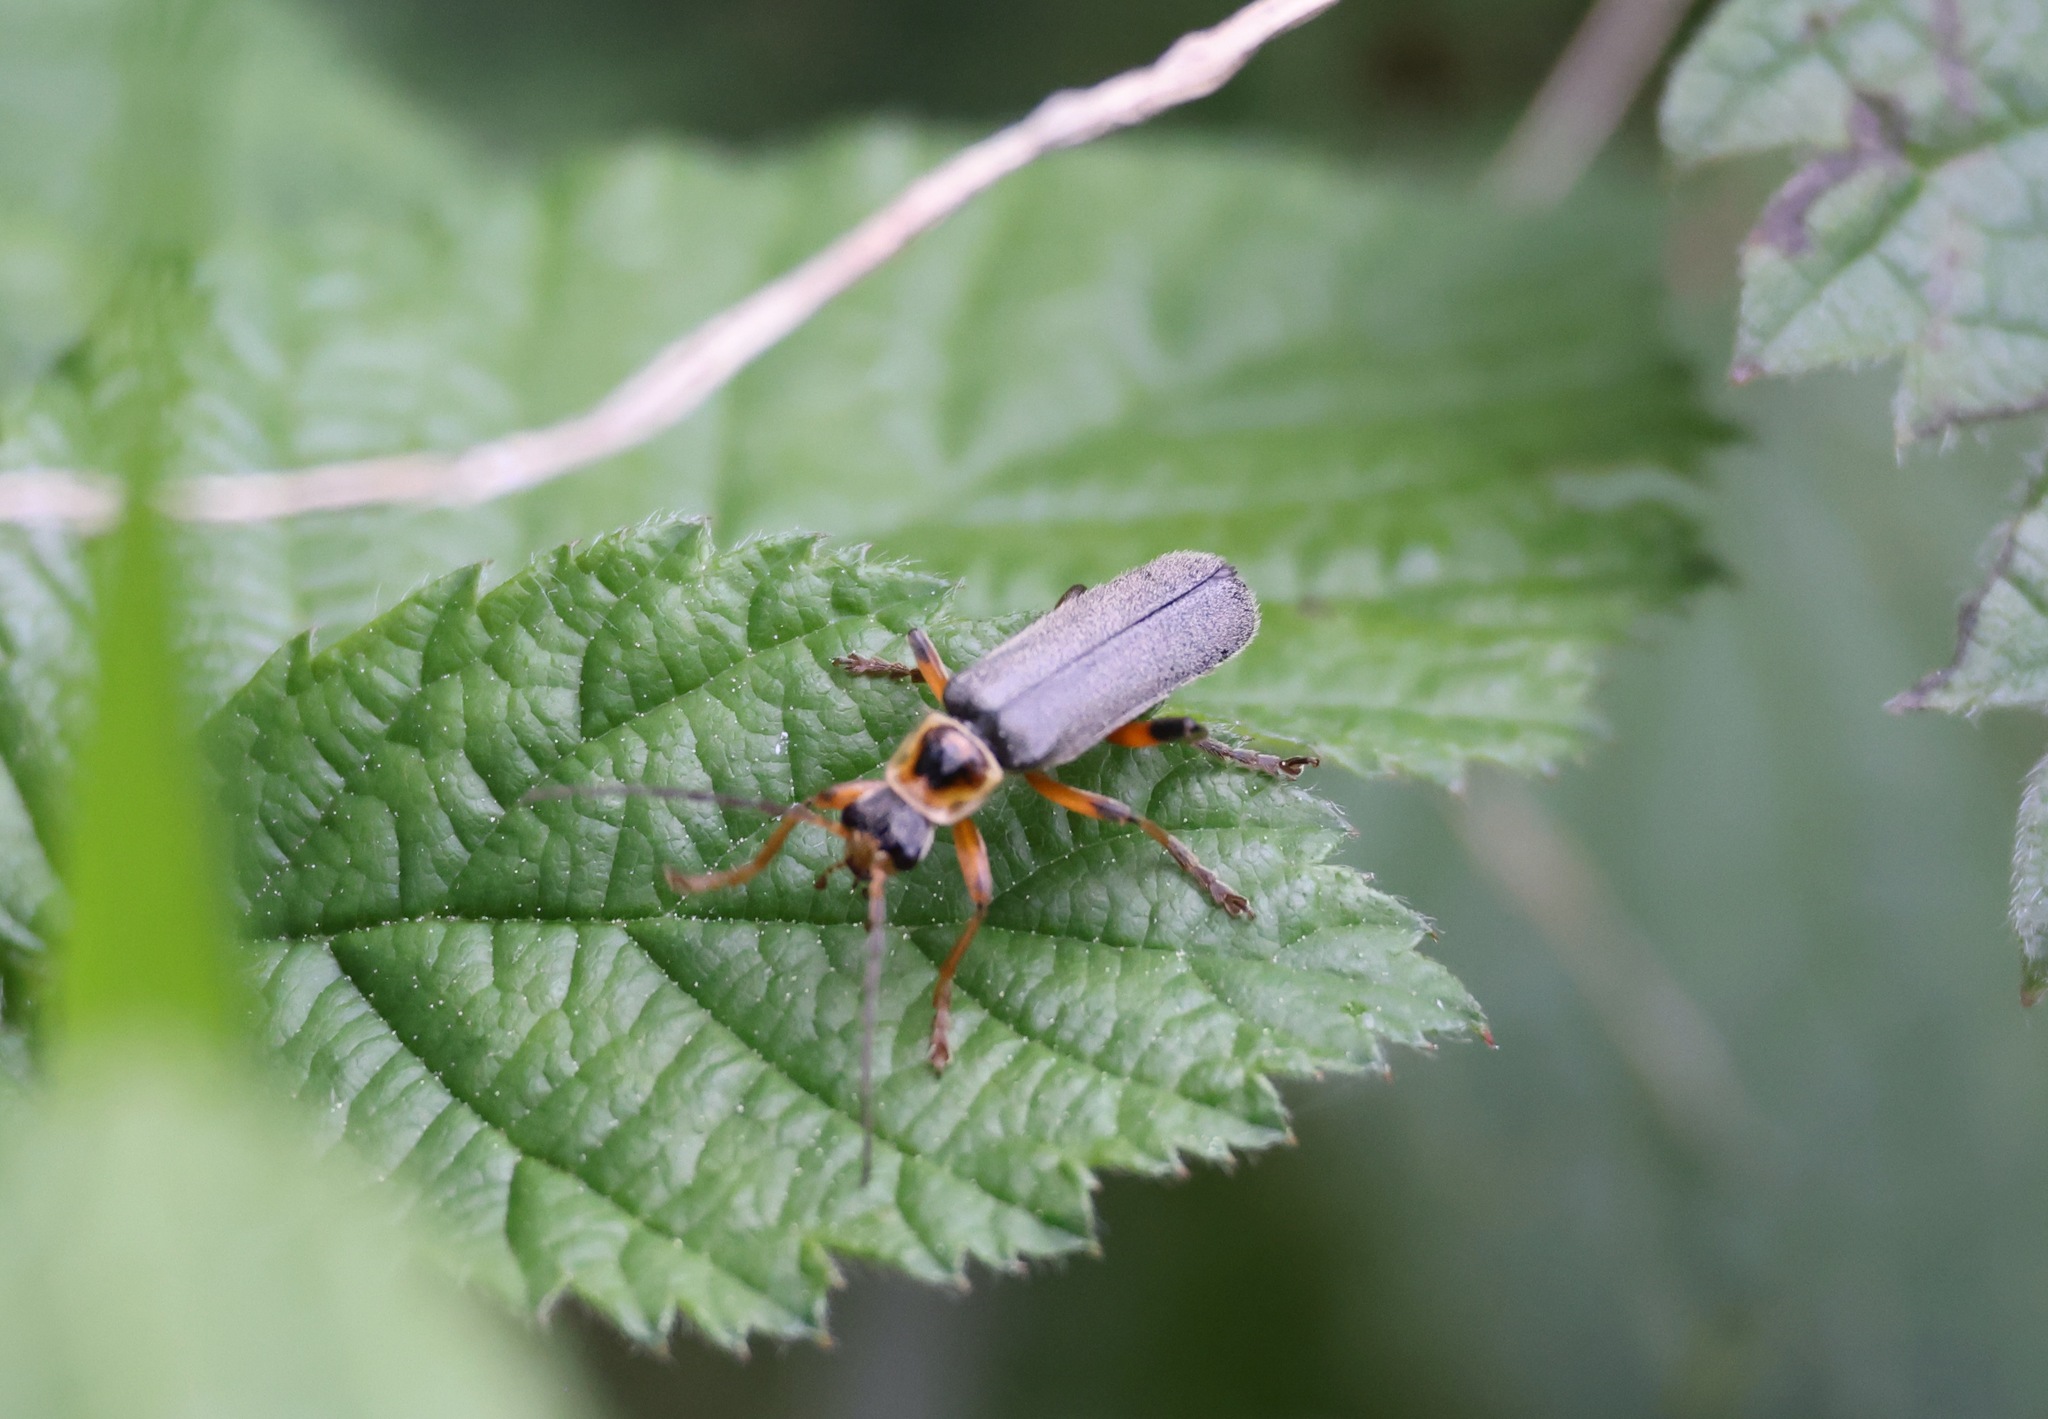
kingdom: Animalia
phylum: Arthropoda
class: Insecta
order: Coleoptera
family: Cantharidae
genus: Cantharis
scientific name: Cantharis nigricans
